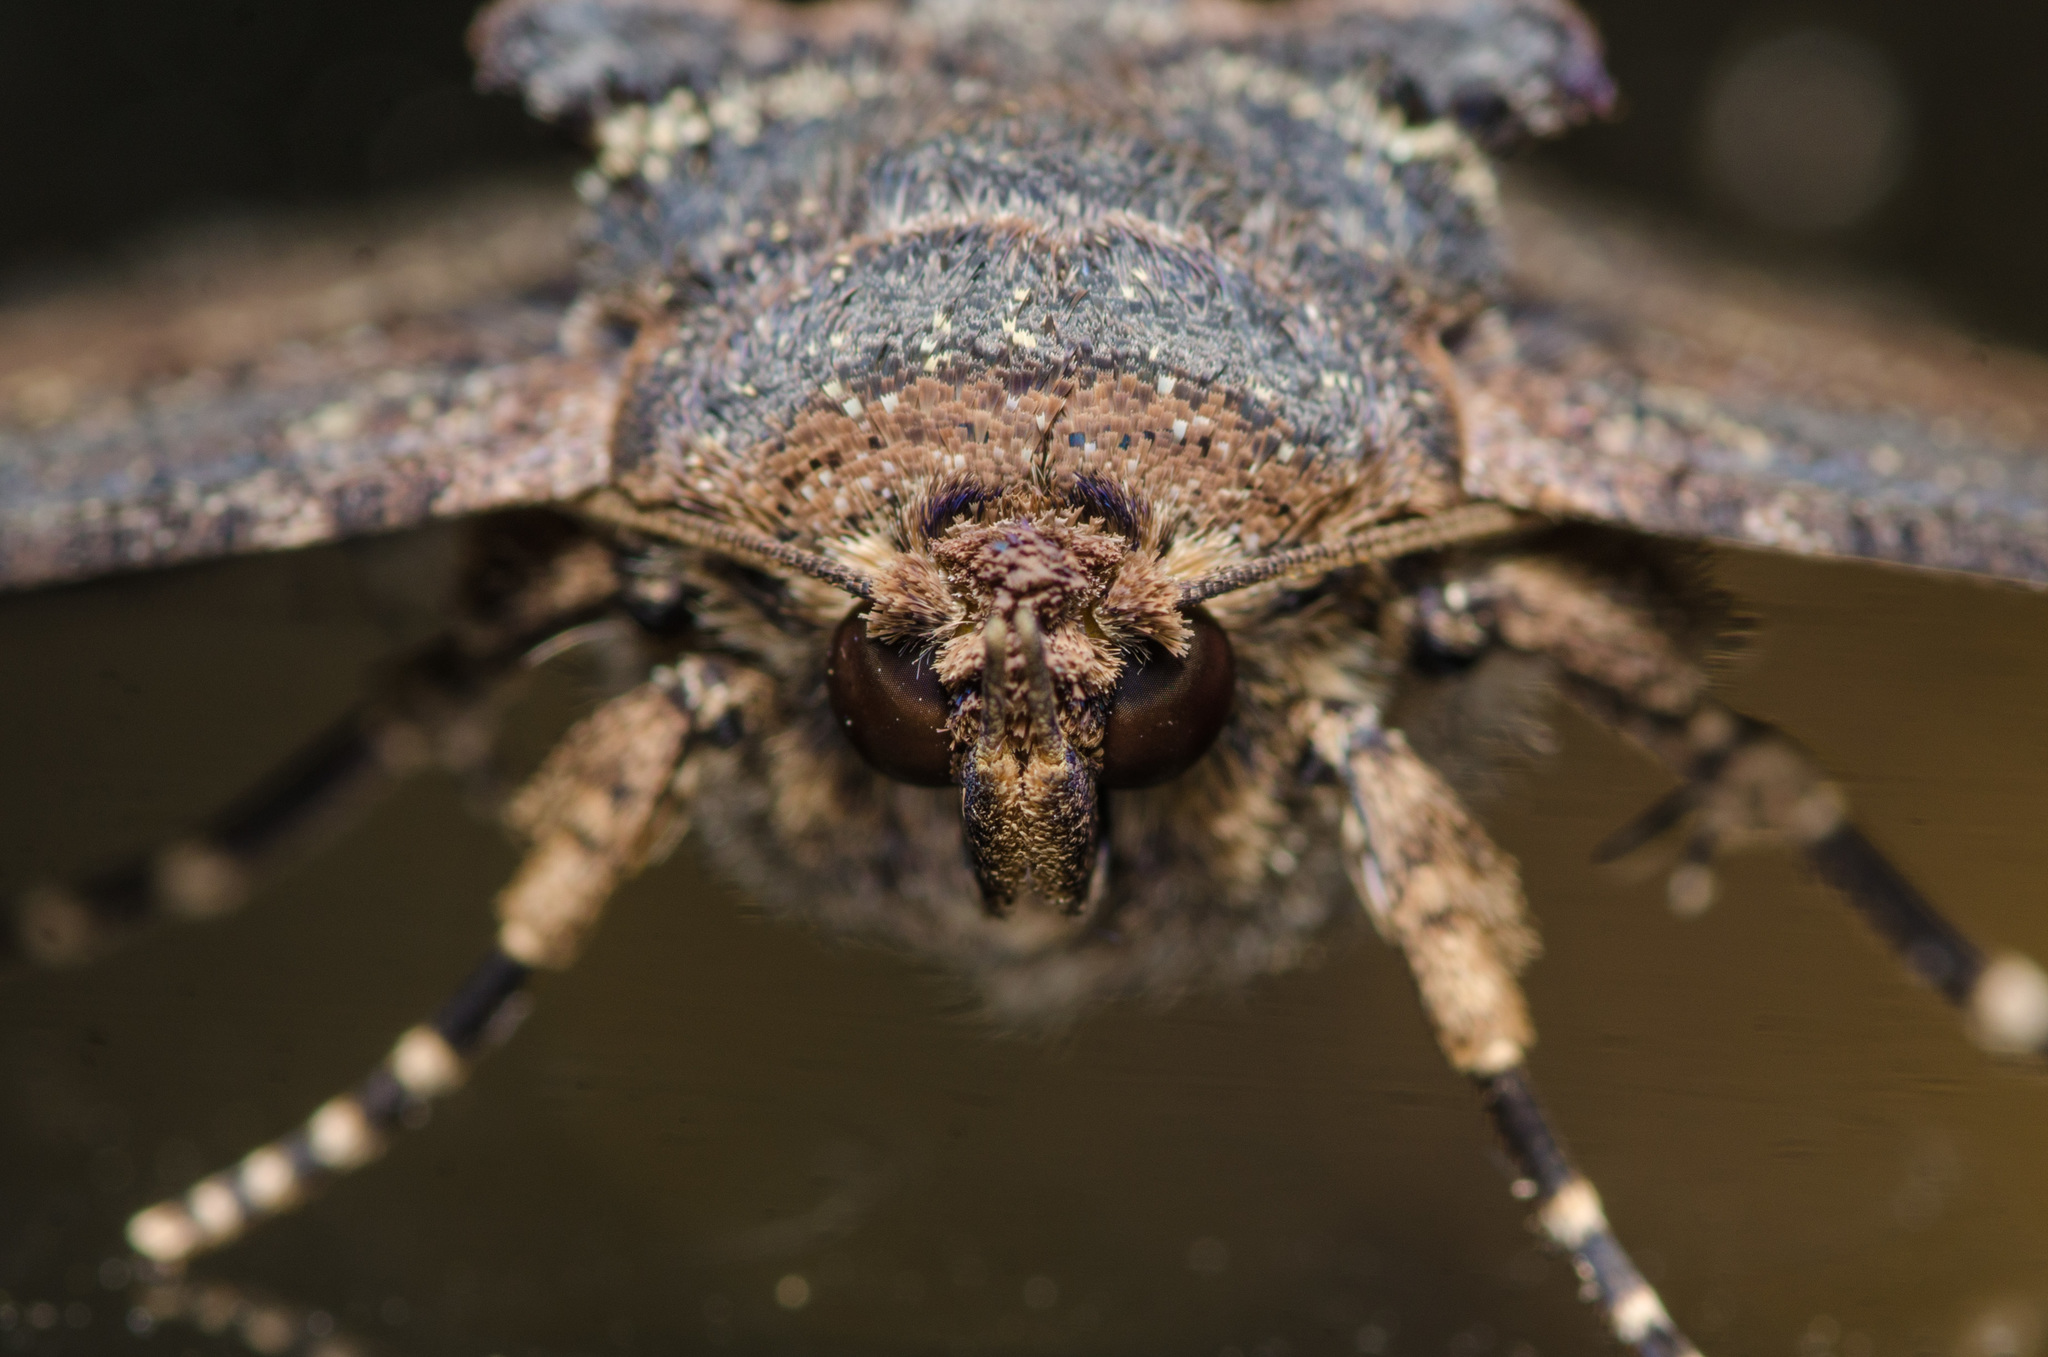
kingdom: Animalia
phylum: Arthropoda
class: Insecta
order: Lepidoptera
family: Erebidae
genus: Zale
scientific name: Zale lunata
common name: Lunate zale moth
